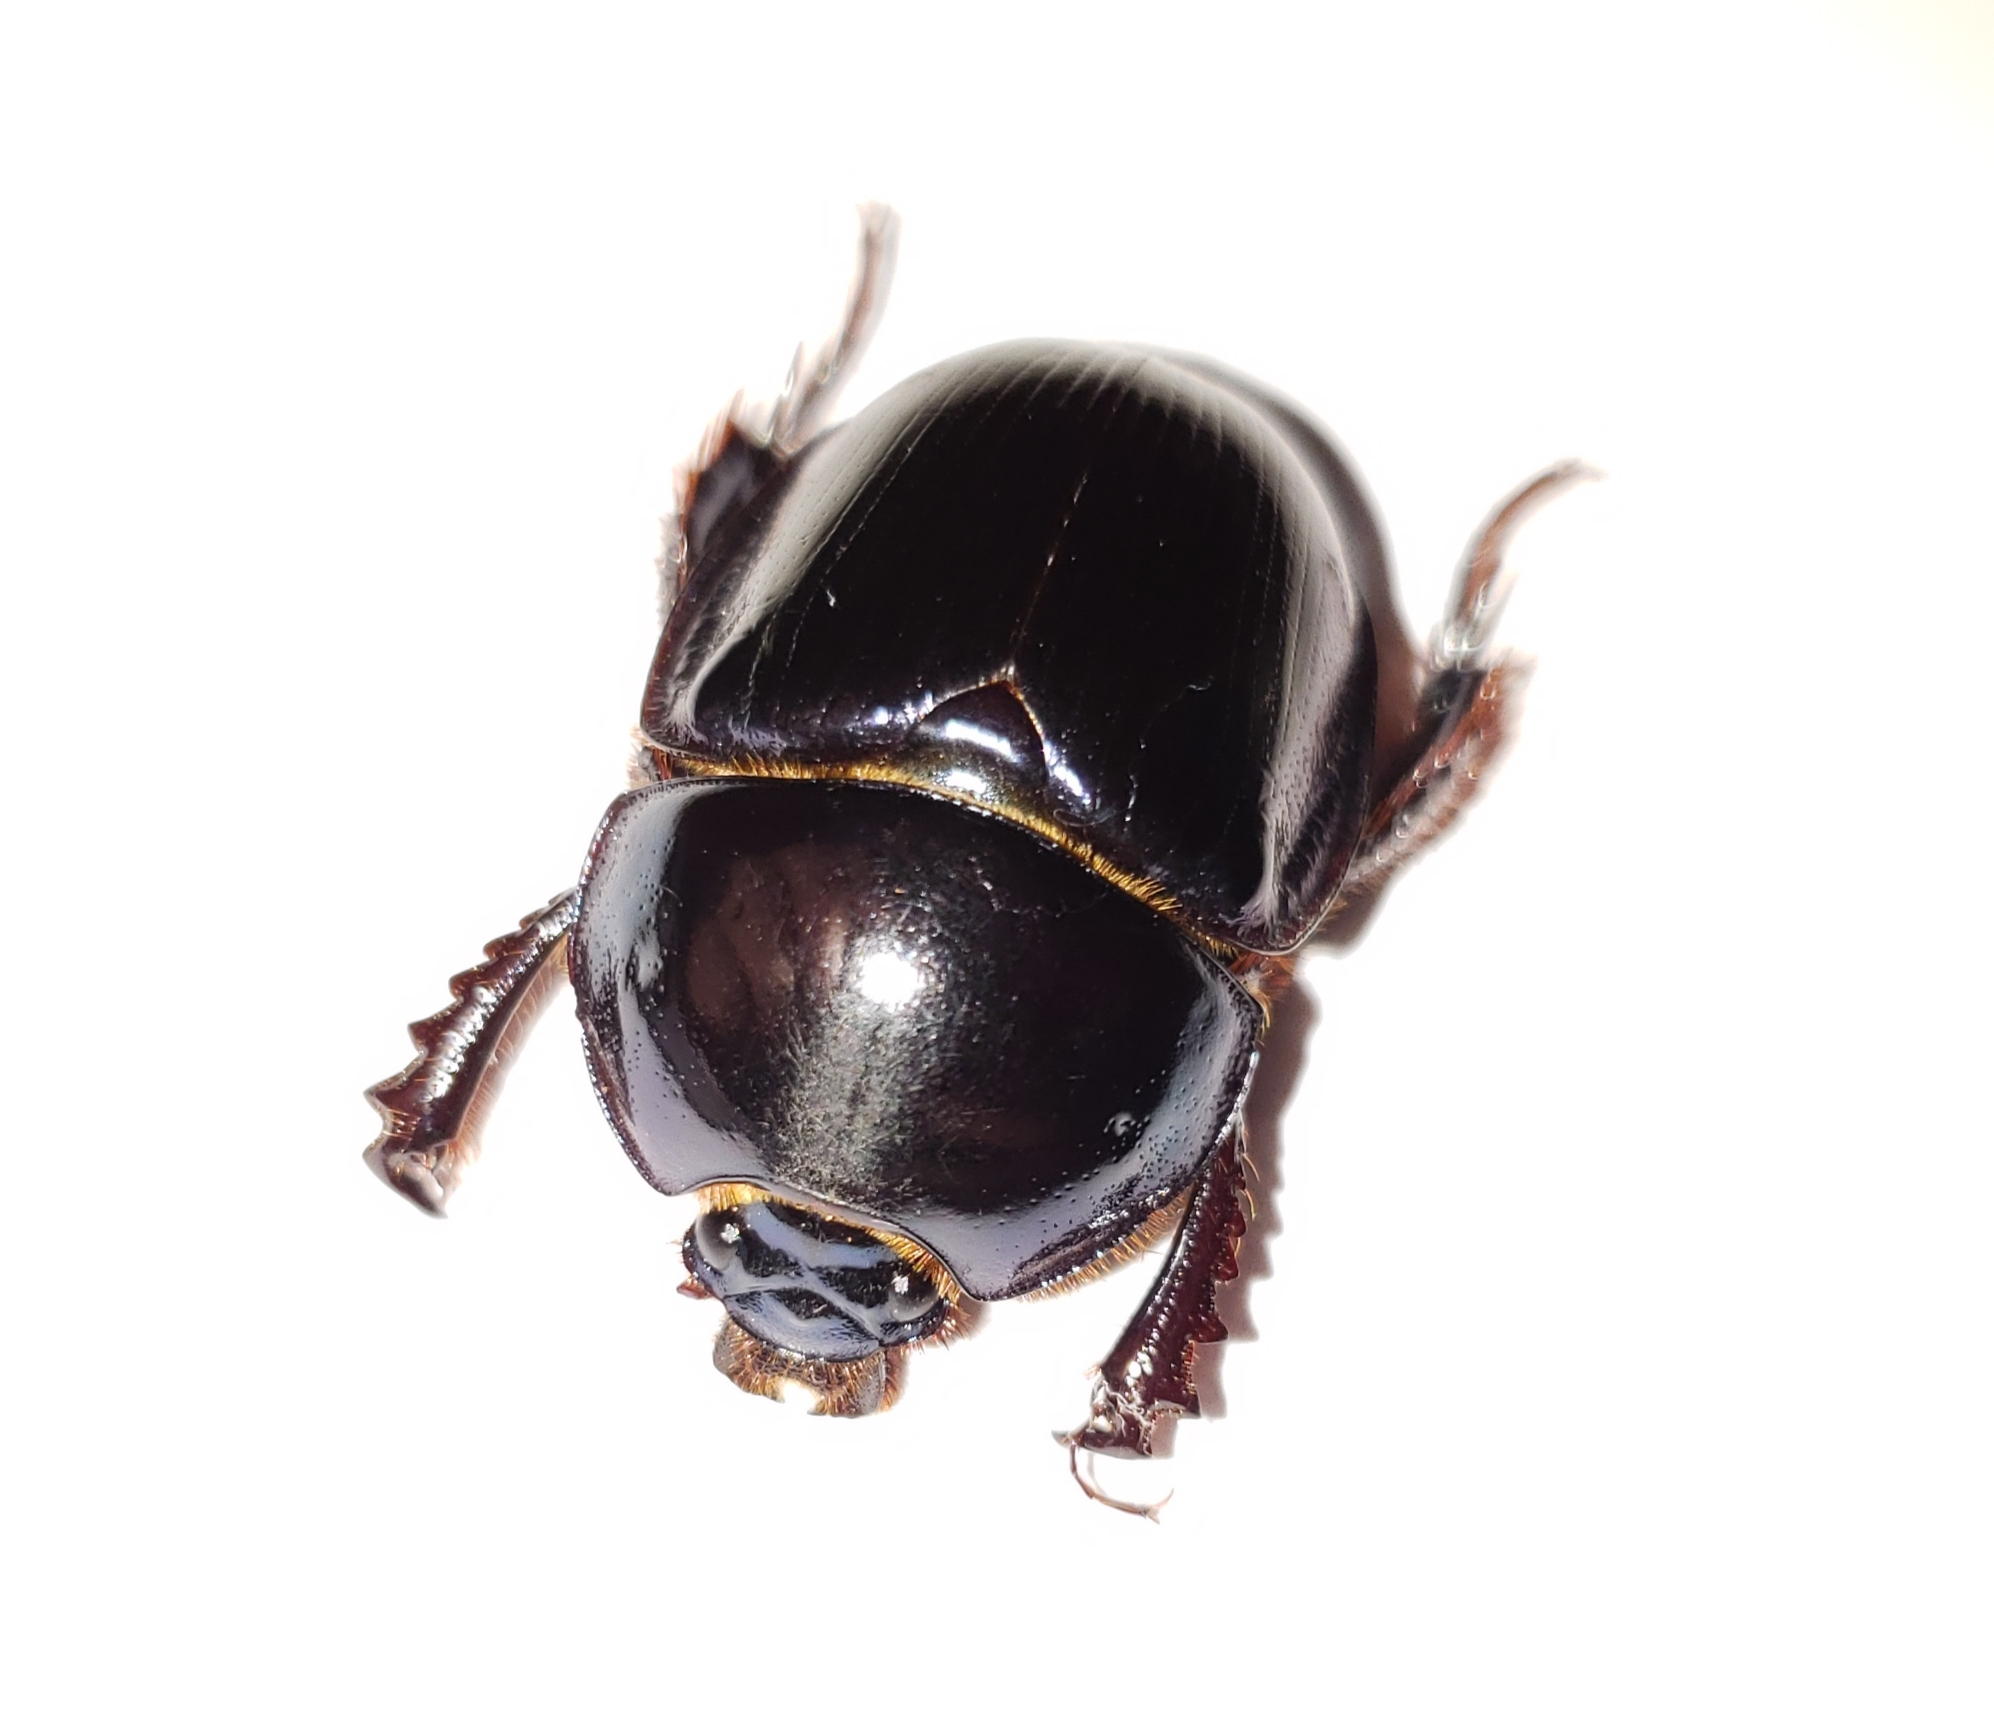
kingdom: Animalia
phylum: Arthropoda
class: Insecta
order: Coleoptera
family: Geotrupidae
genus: Peltotrupes
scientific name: Peltotrupes profundus
